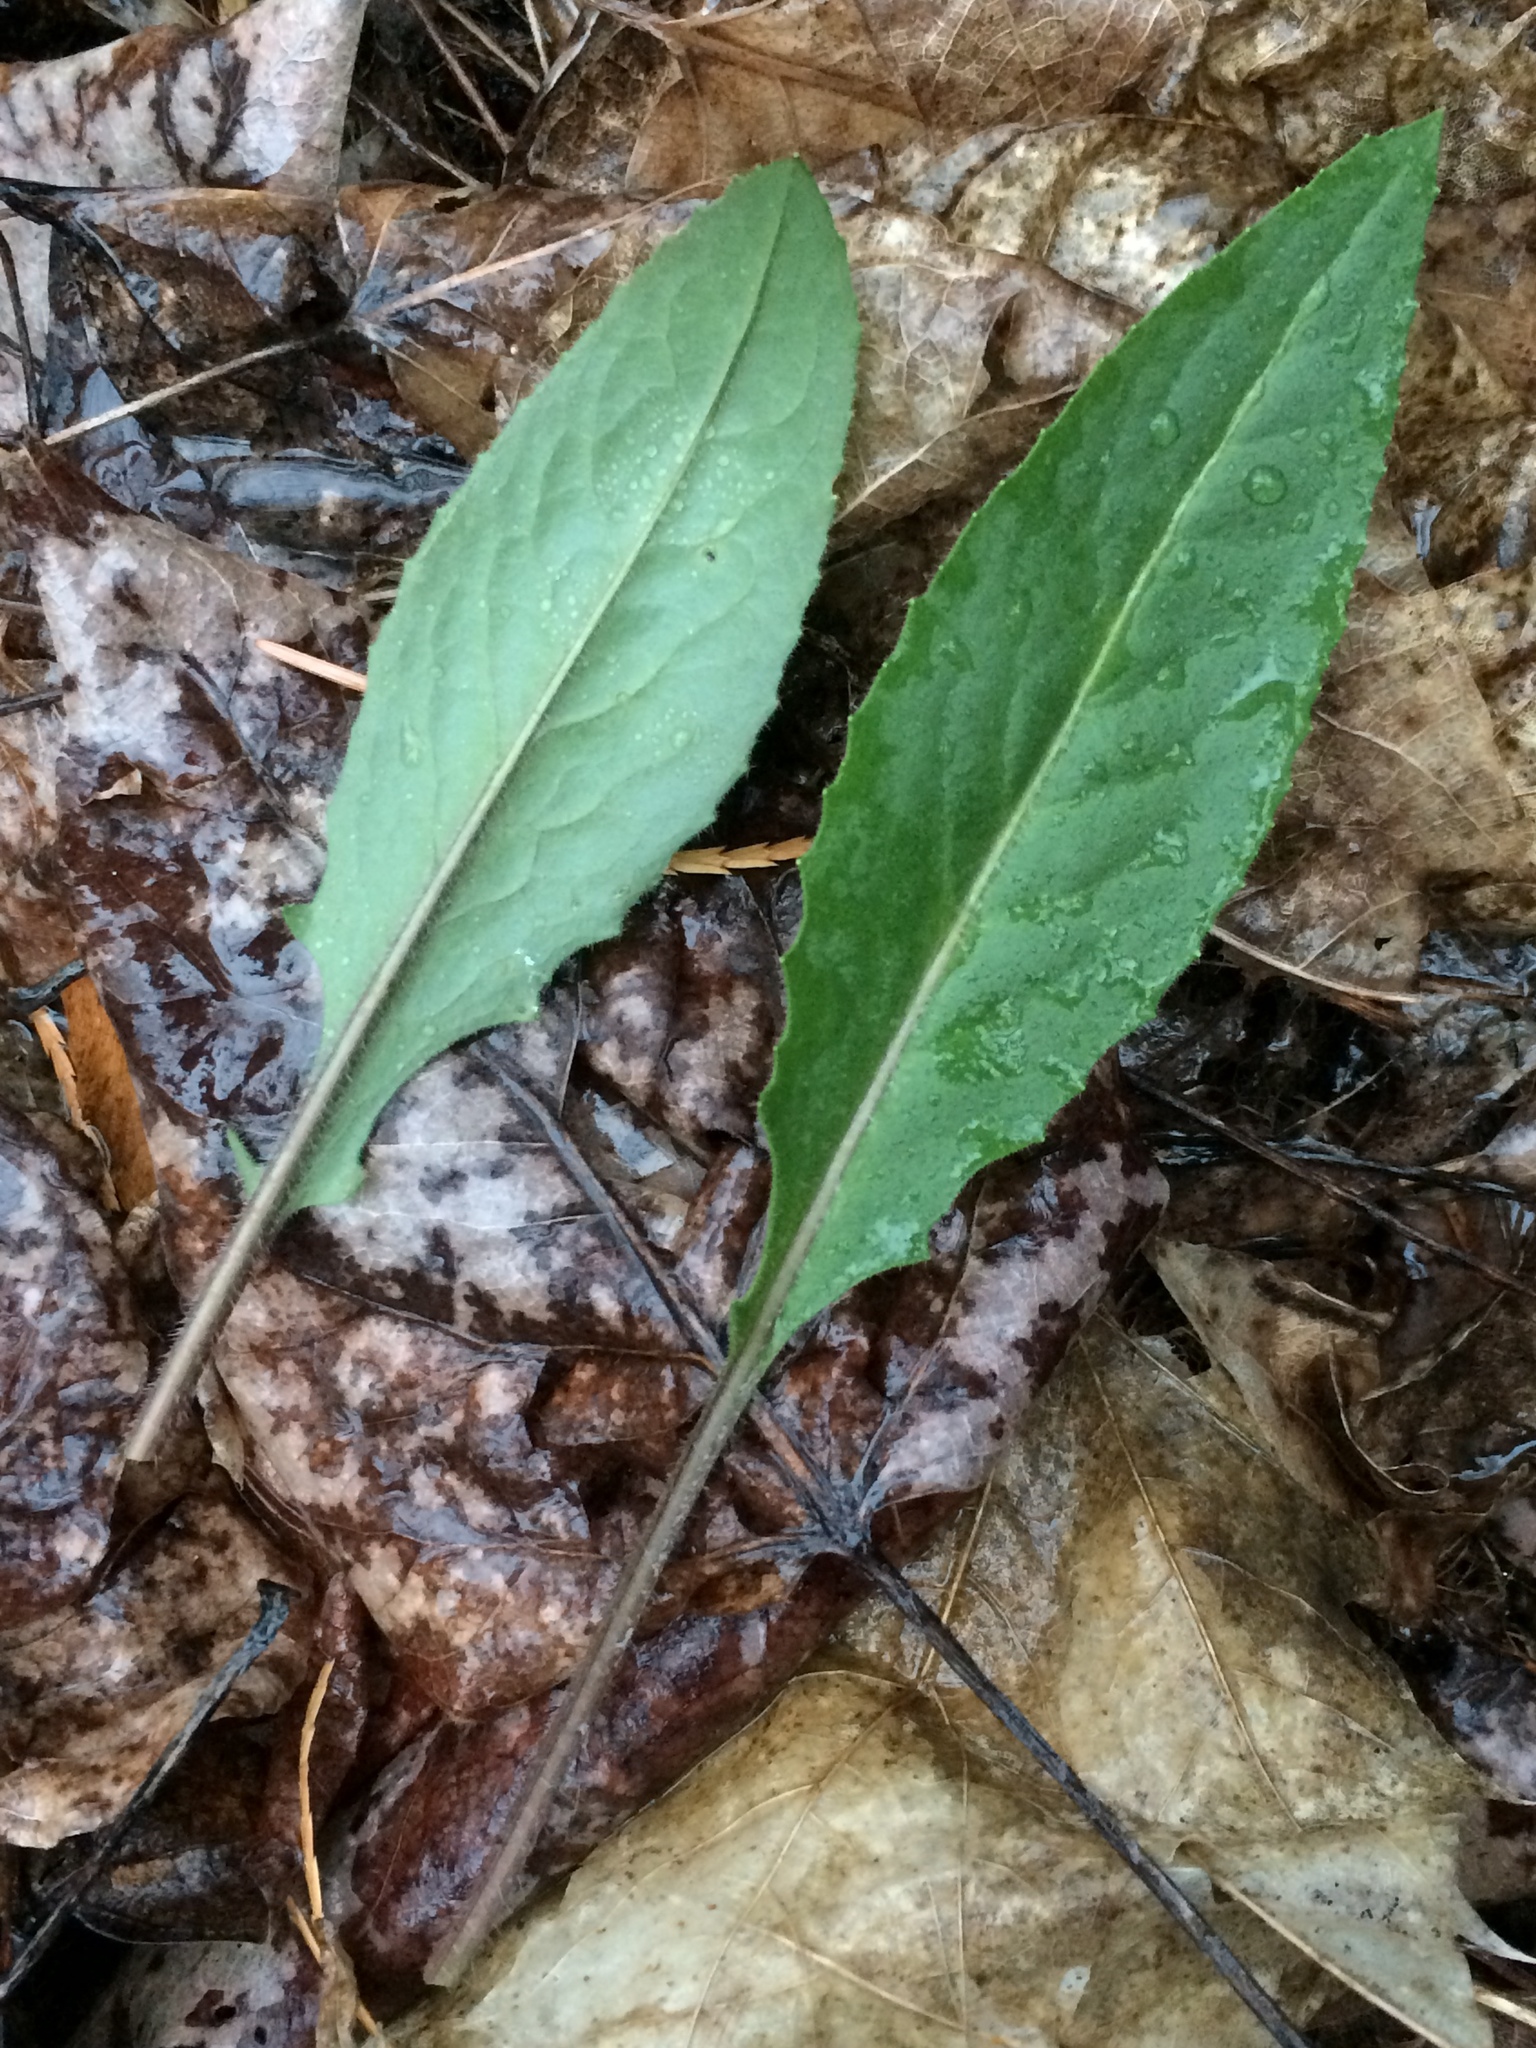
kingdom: Plantae
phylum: Tracheophyta
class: Magnoliopsida
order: Brassicales
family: Brassicaceae
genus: Hesperis
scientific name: Hesperis matronalis
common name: Dame's-violet
